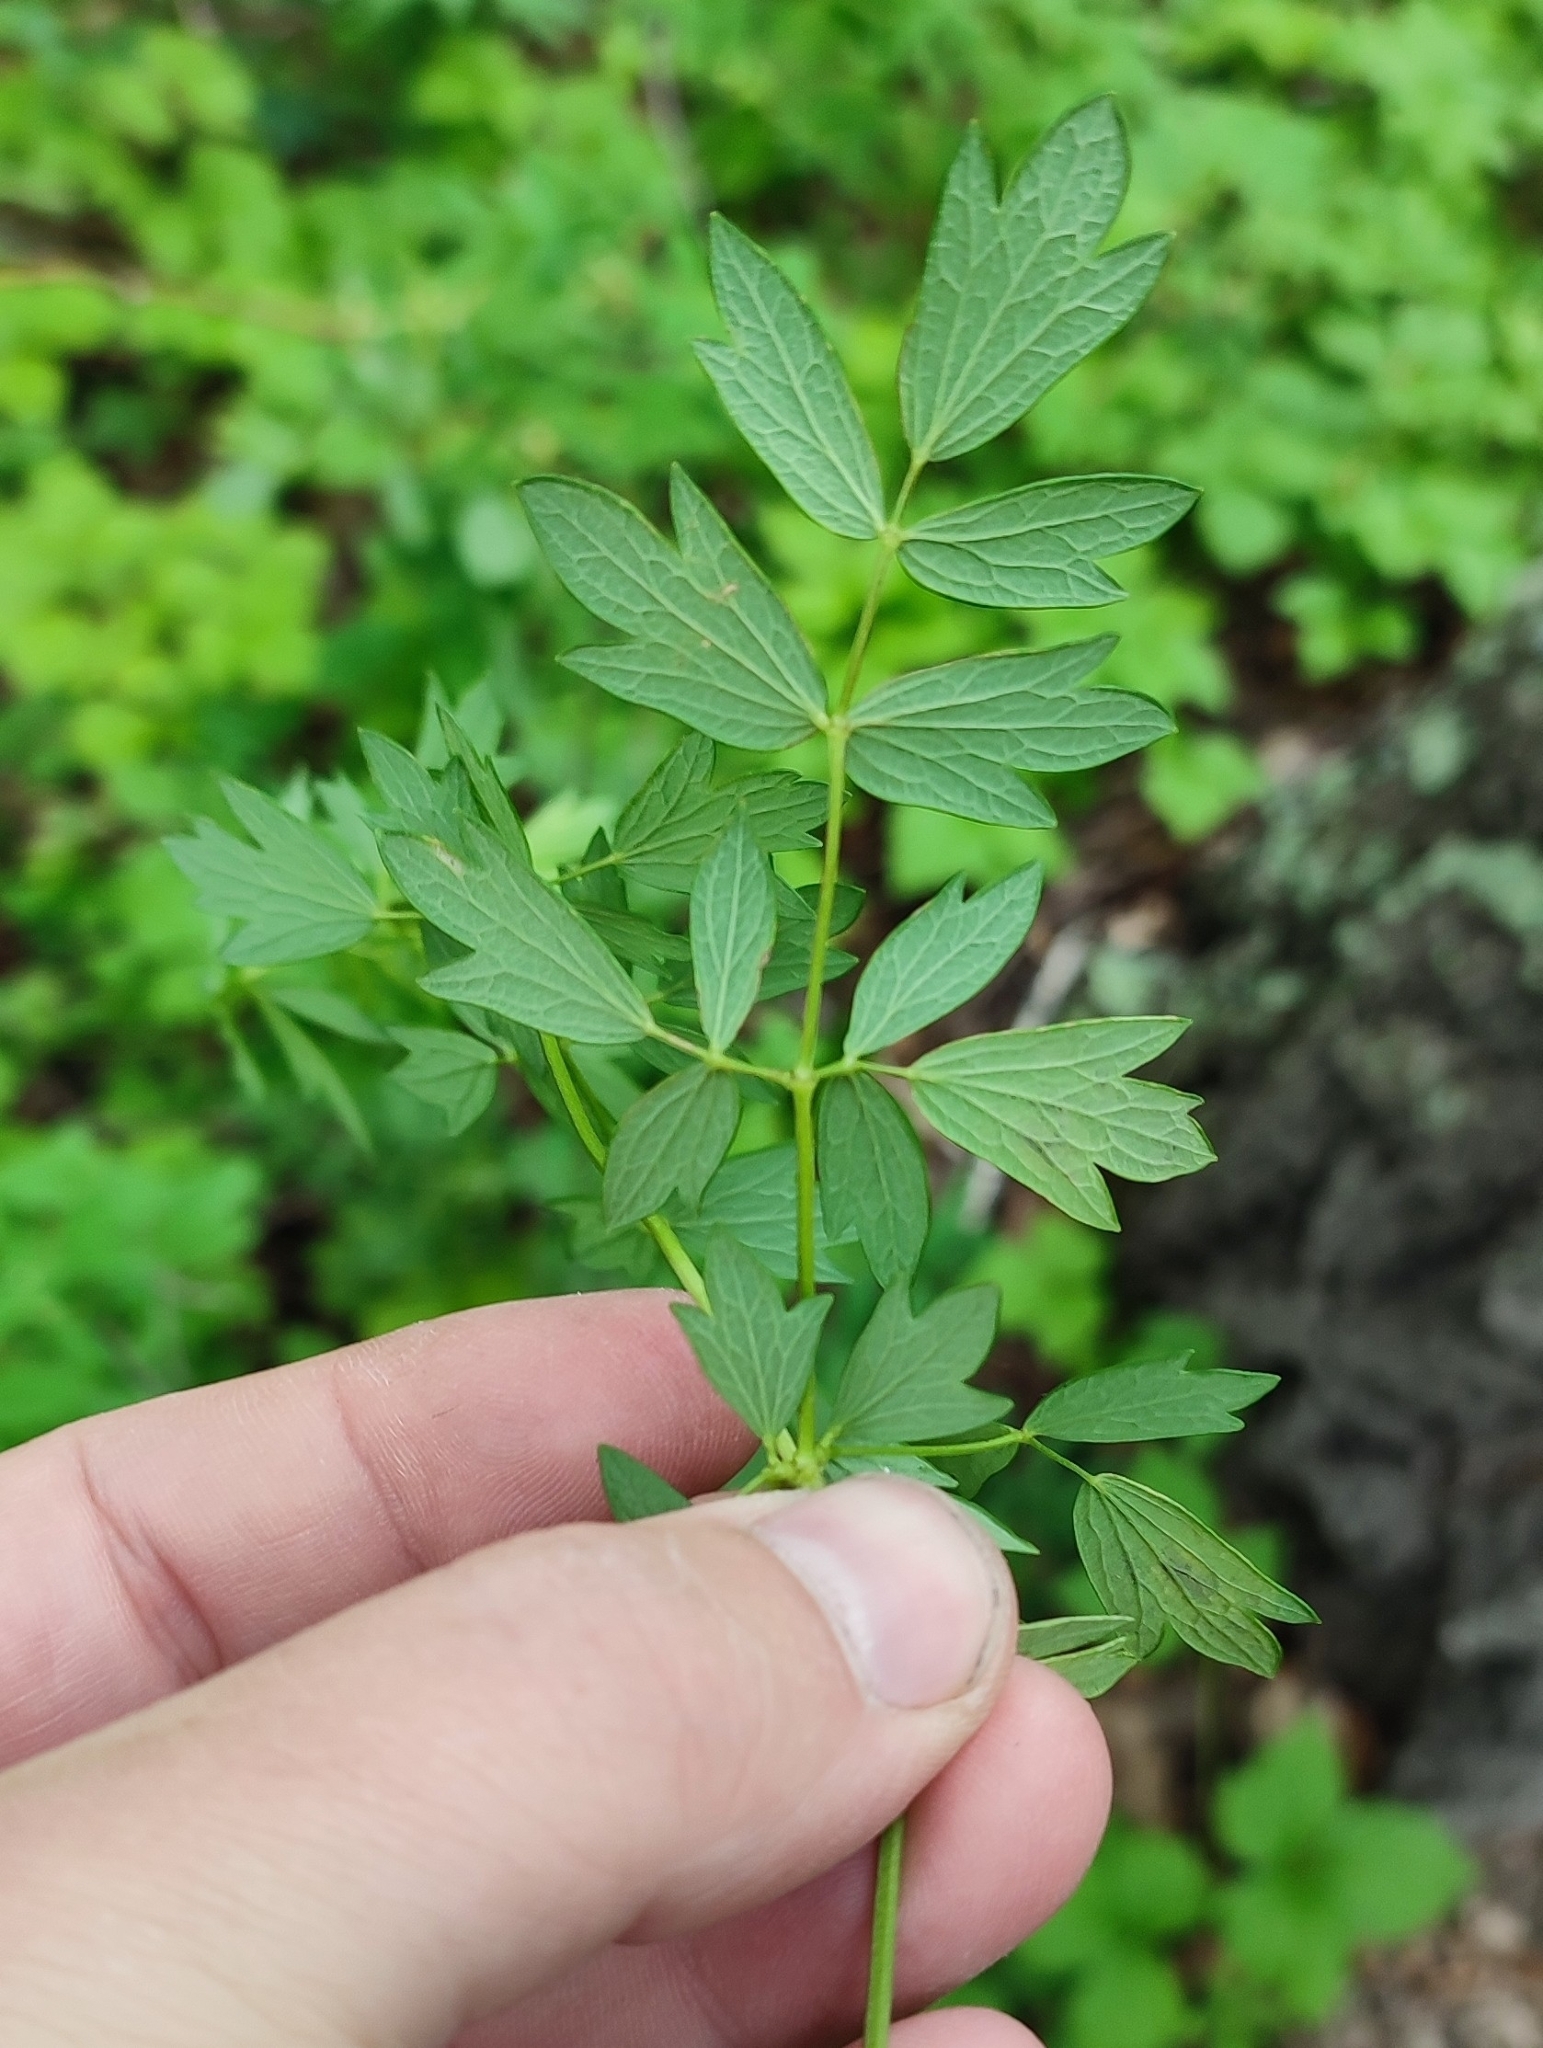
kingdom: Plantae
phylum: Tracheophyta
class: Magnoliopsida
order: Ranunculales
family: Ranunculaceae
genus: Thalictrum
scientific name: Thalictrum flavum
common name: Common meadow-rue
